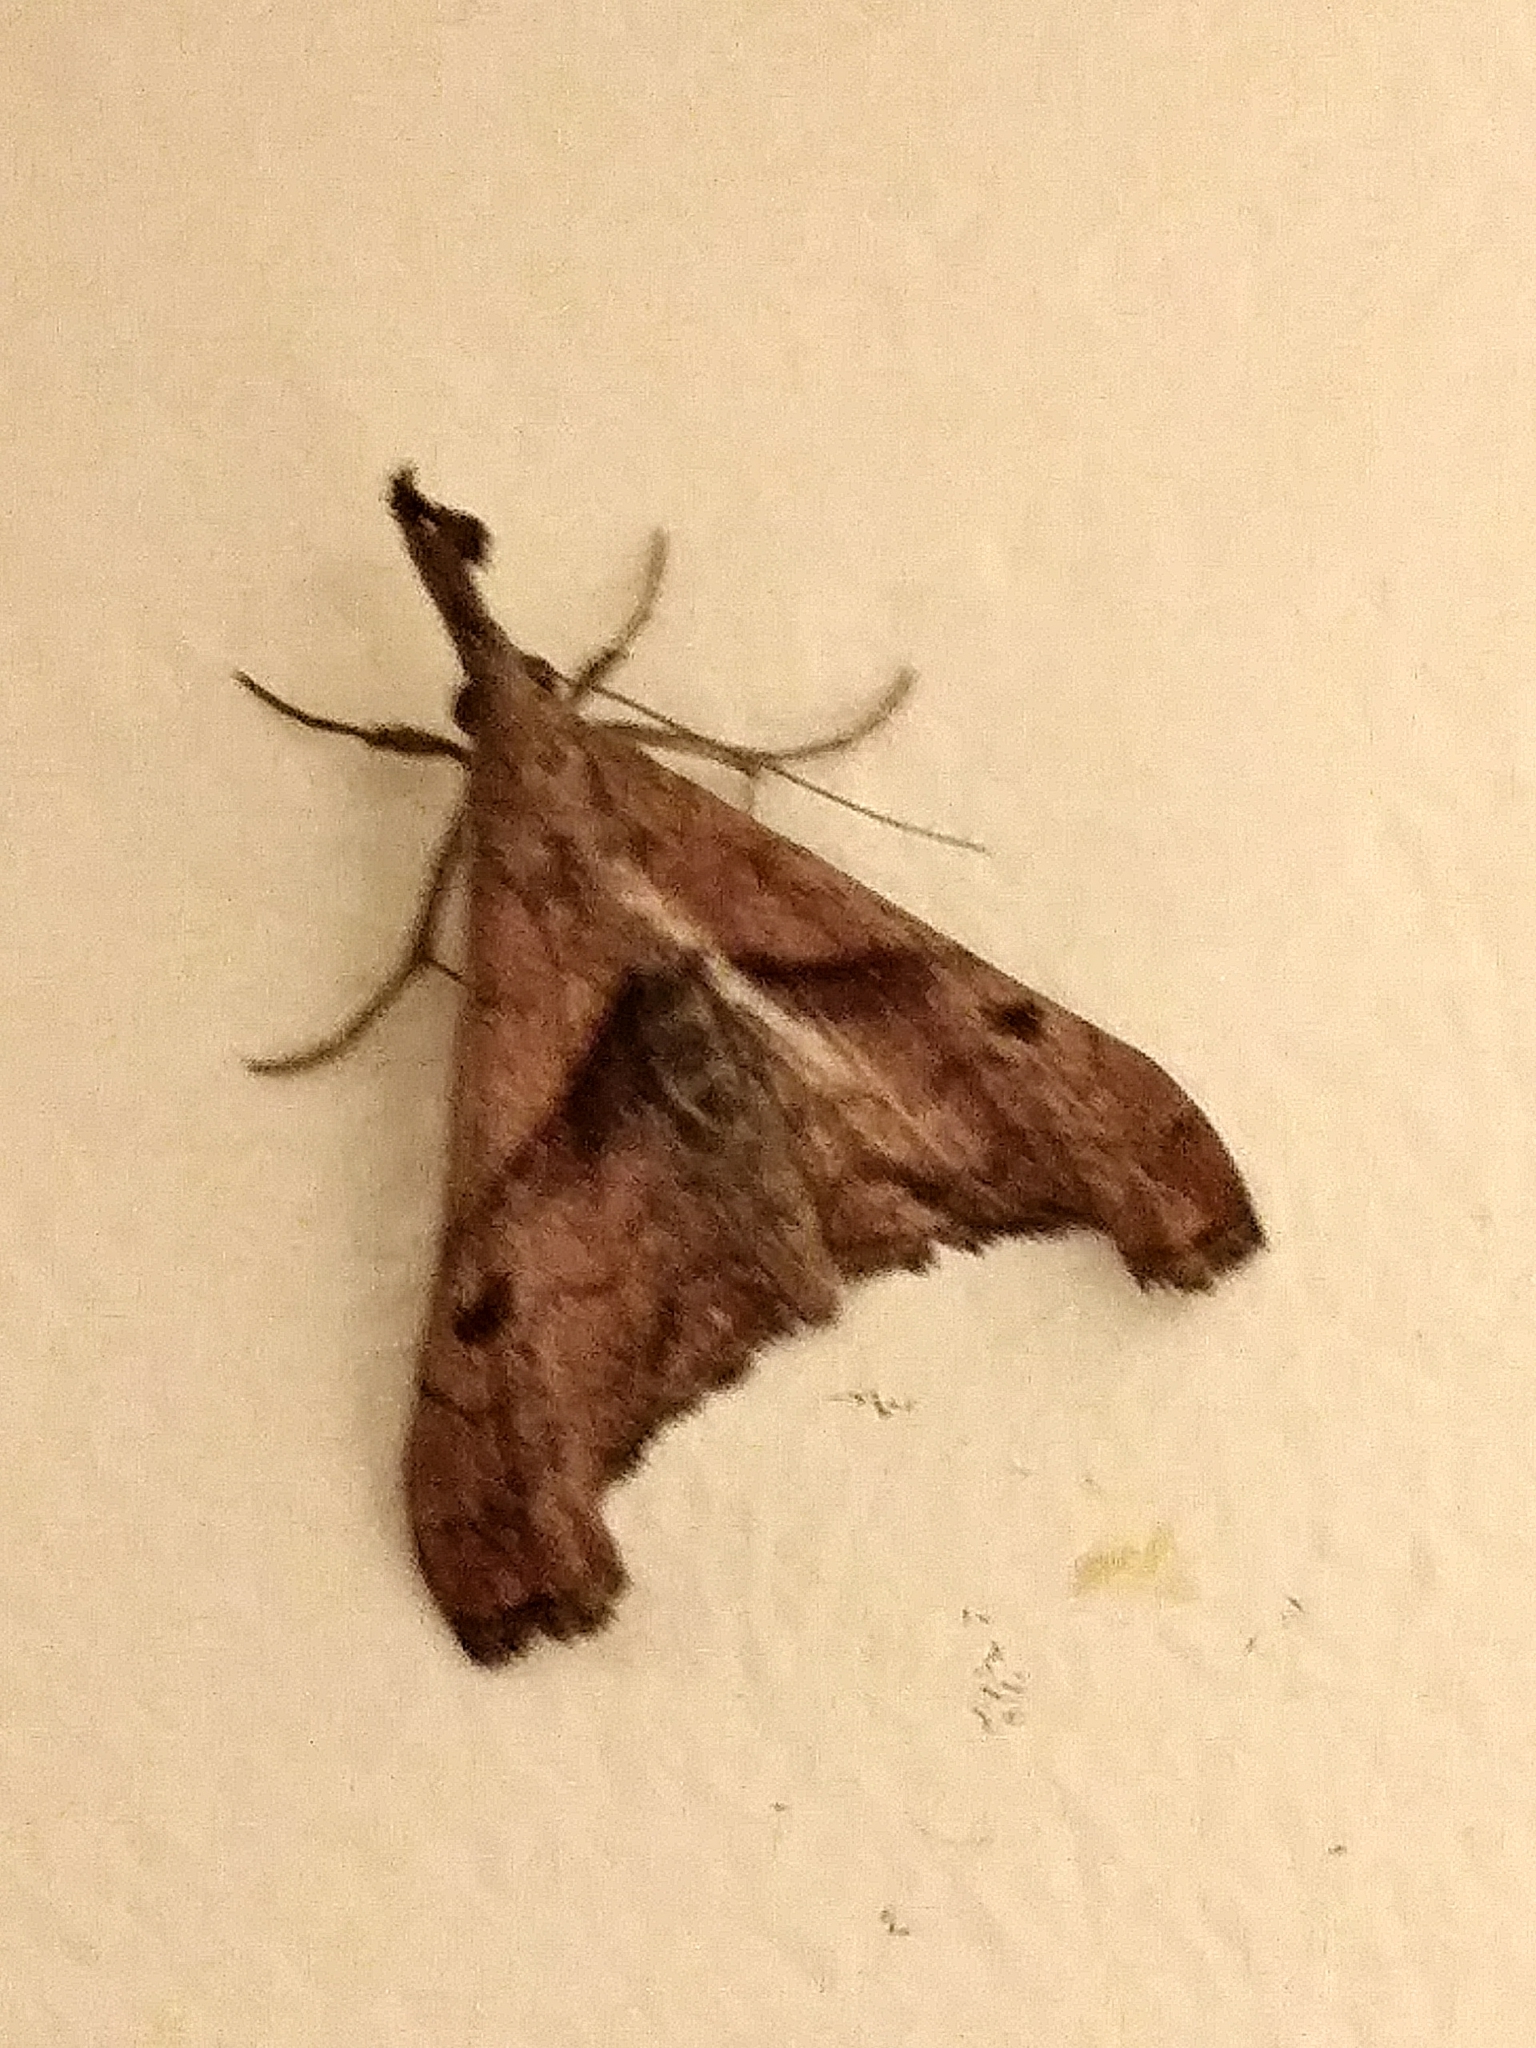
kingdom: Animalia
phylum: Arthropoda
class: Insecta
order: Lepidoptera
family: Erebidae
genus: Palthis
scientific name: Palthis angulalis
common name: Dark-spotted palthis moth
